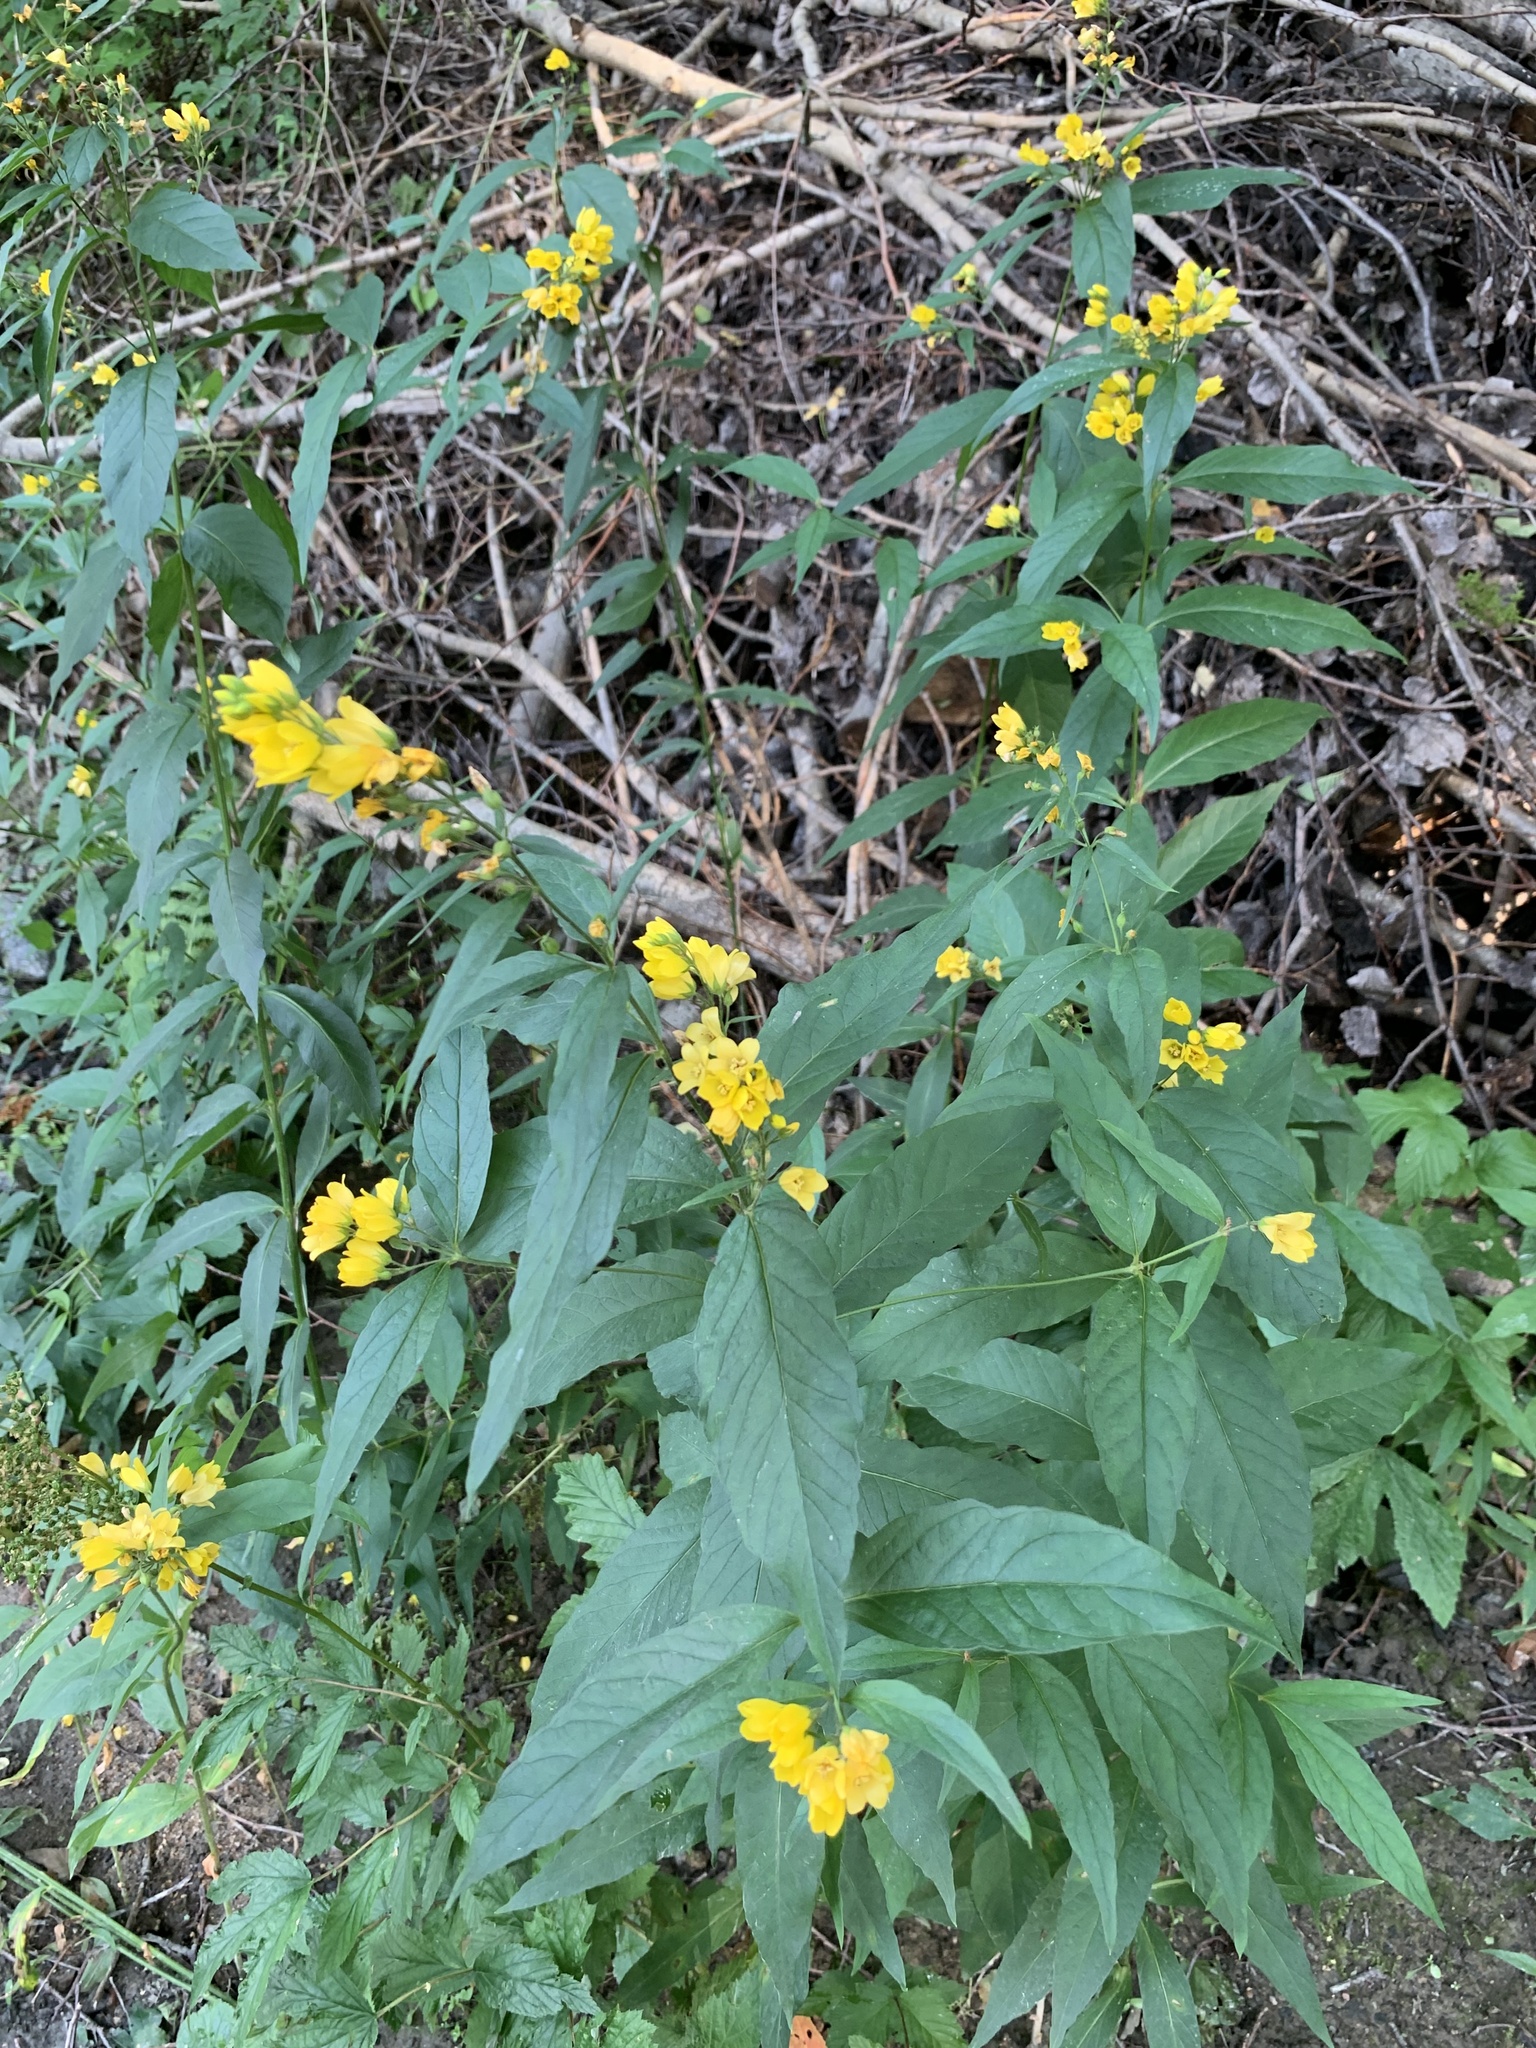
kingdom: Plantae
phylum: Tracheophyta
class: Magnoliopsida
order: Ericales
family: Primulaceae
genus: Lysimachia
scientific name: Lysimachia vulgaris
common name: Yellow loosestrife
